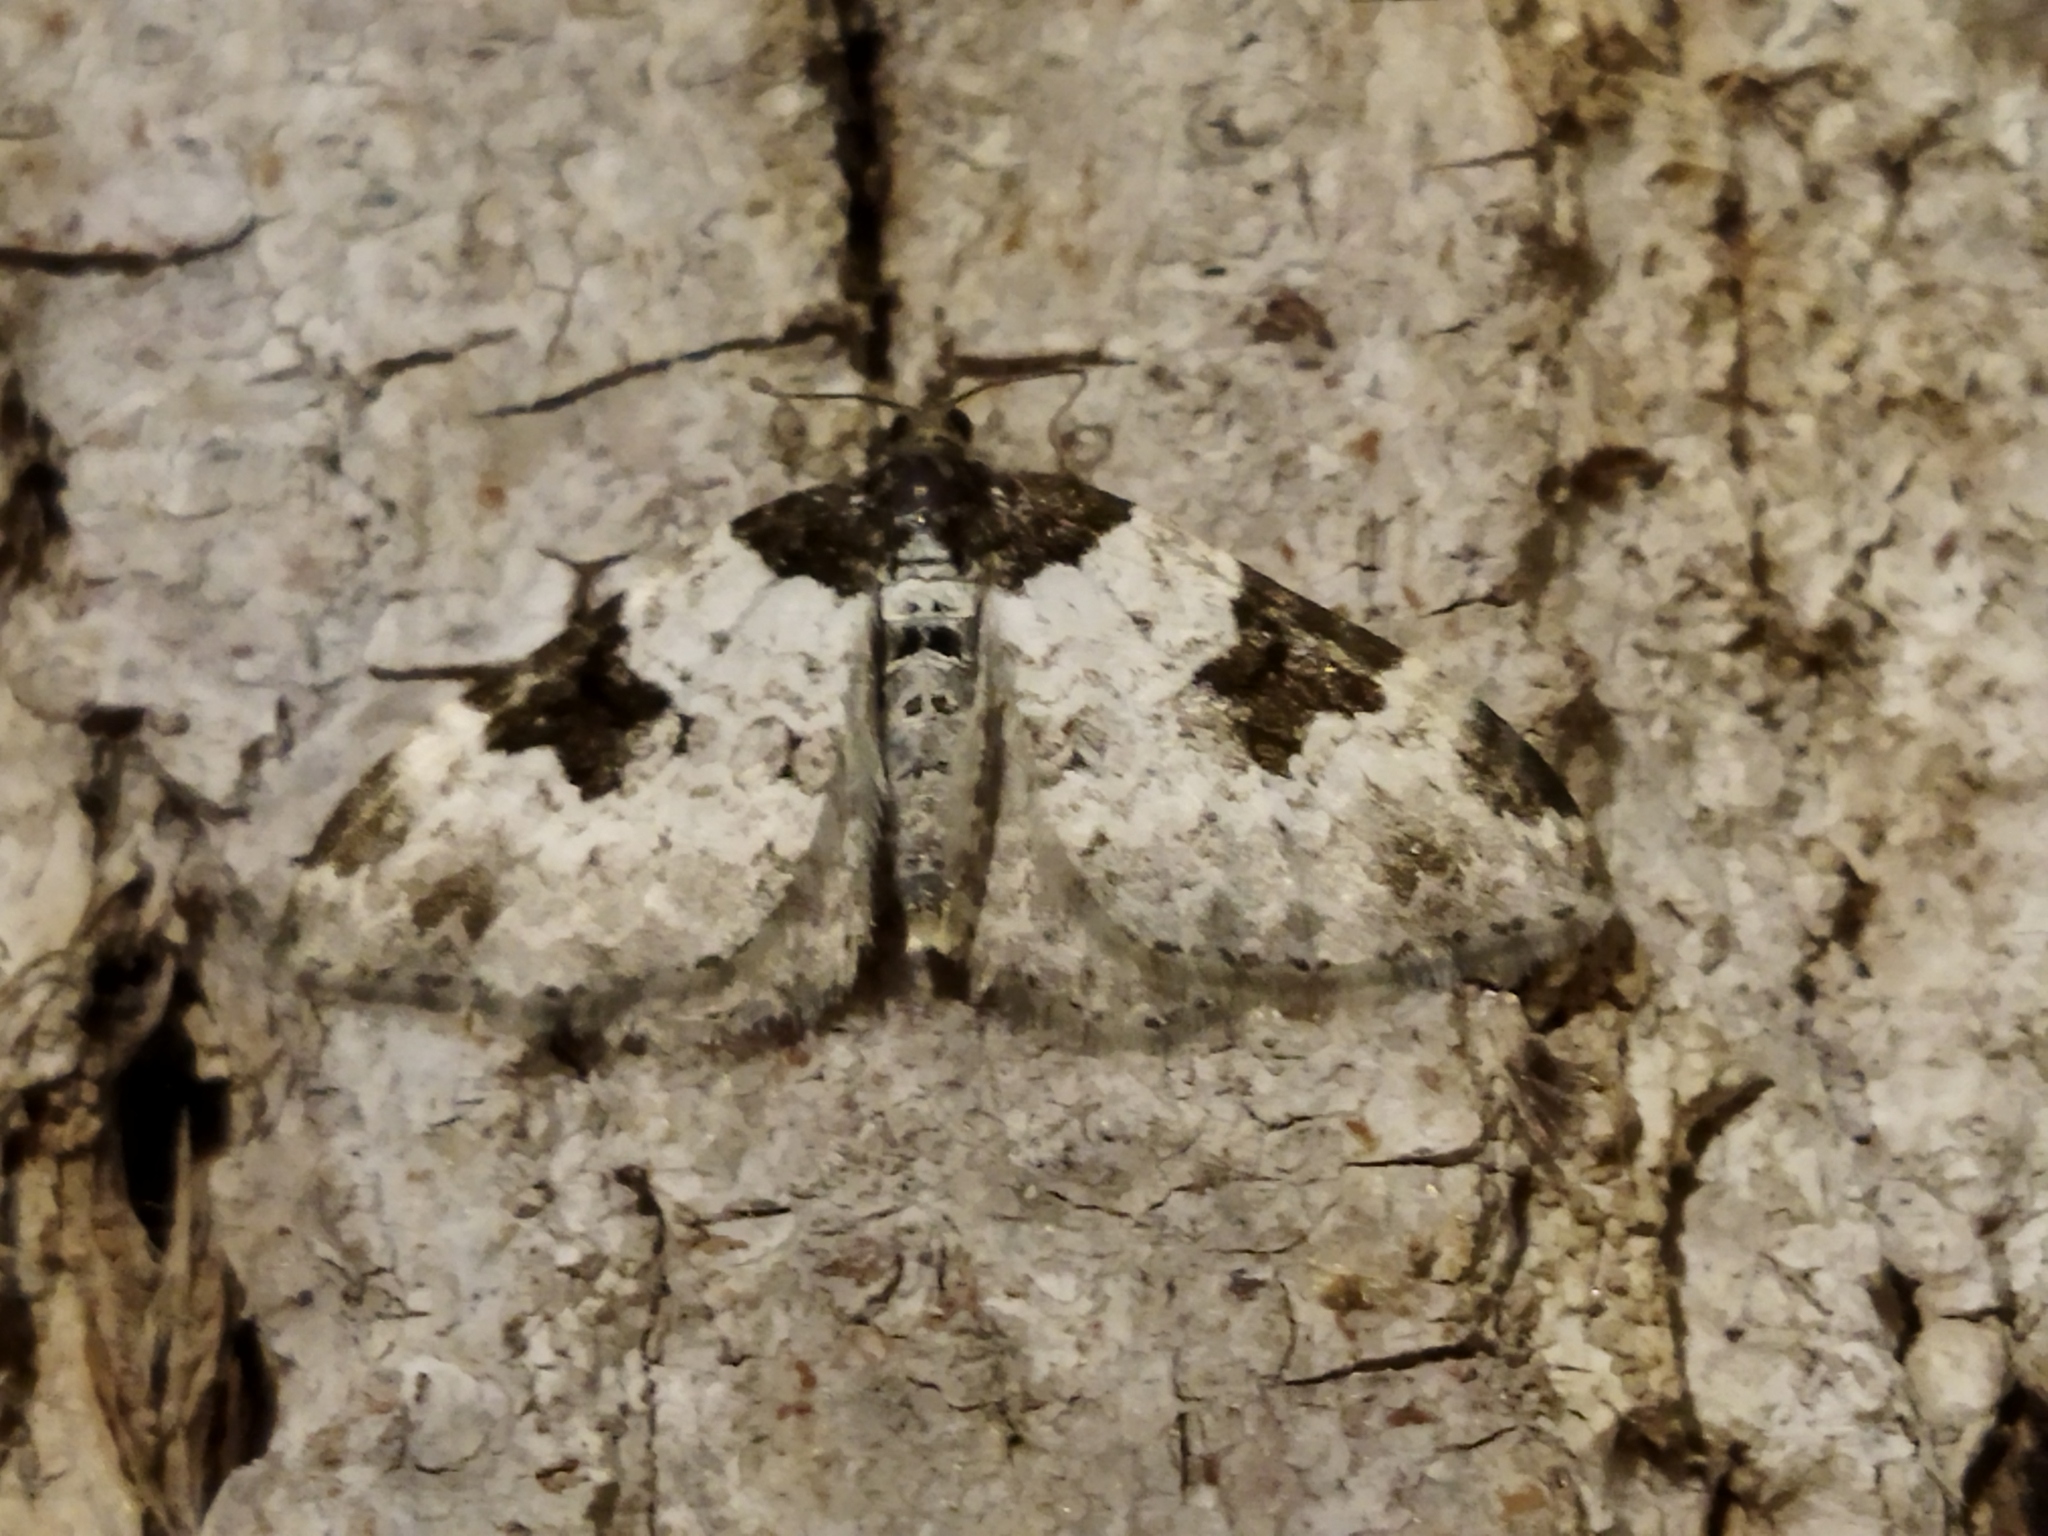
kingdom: Animalia
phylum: Arthropoda
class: Insecta
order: Lepidoptera
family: Geometridae
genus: Xanthorhoe
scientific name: Xanthorhoe fluctuata
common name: Garden carpet
